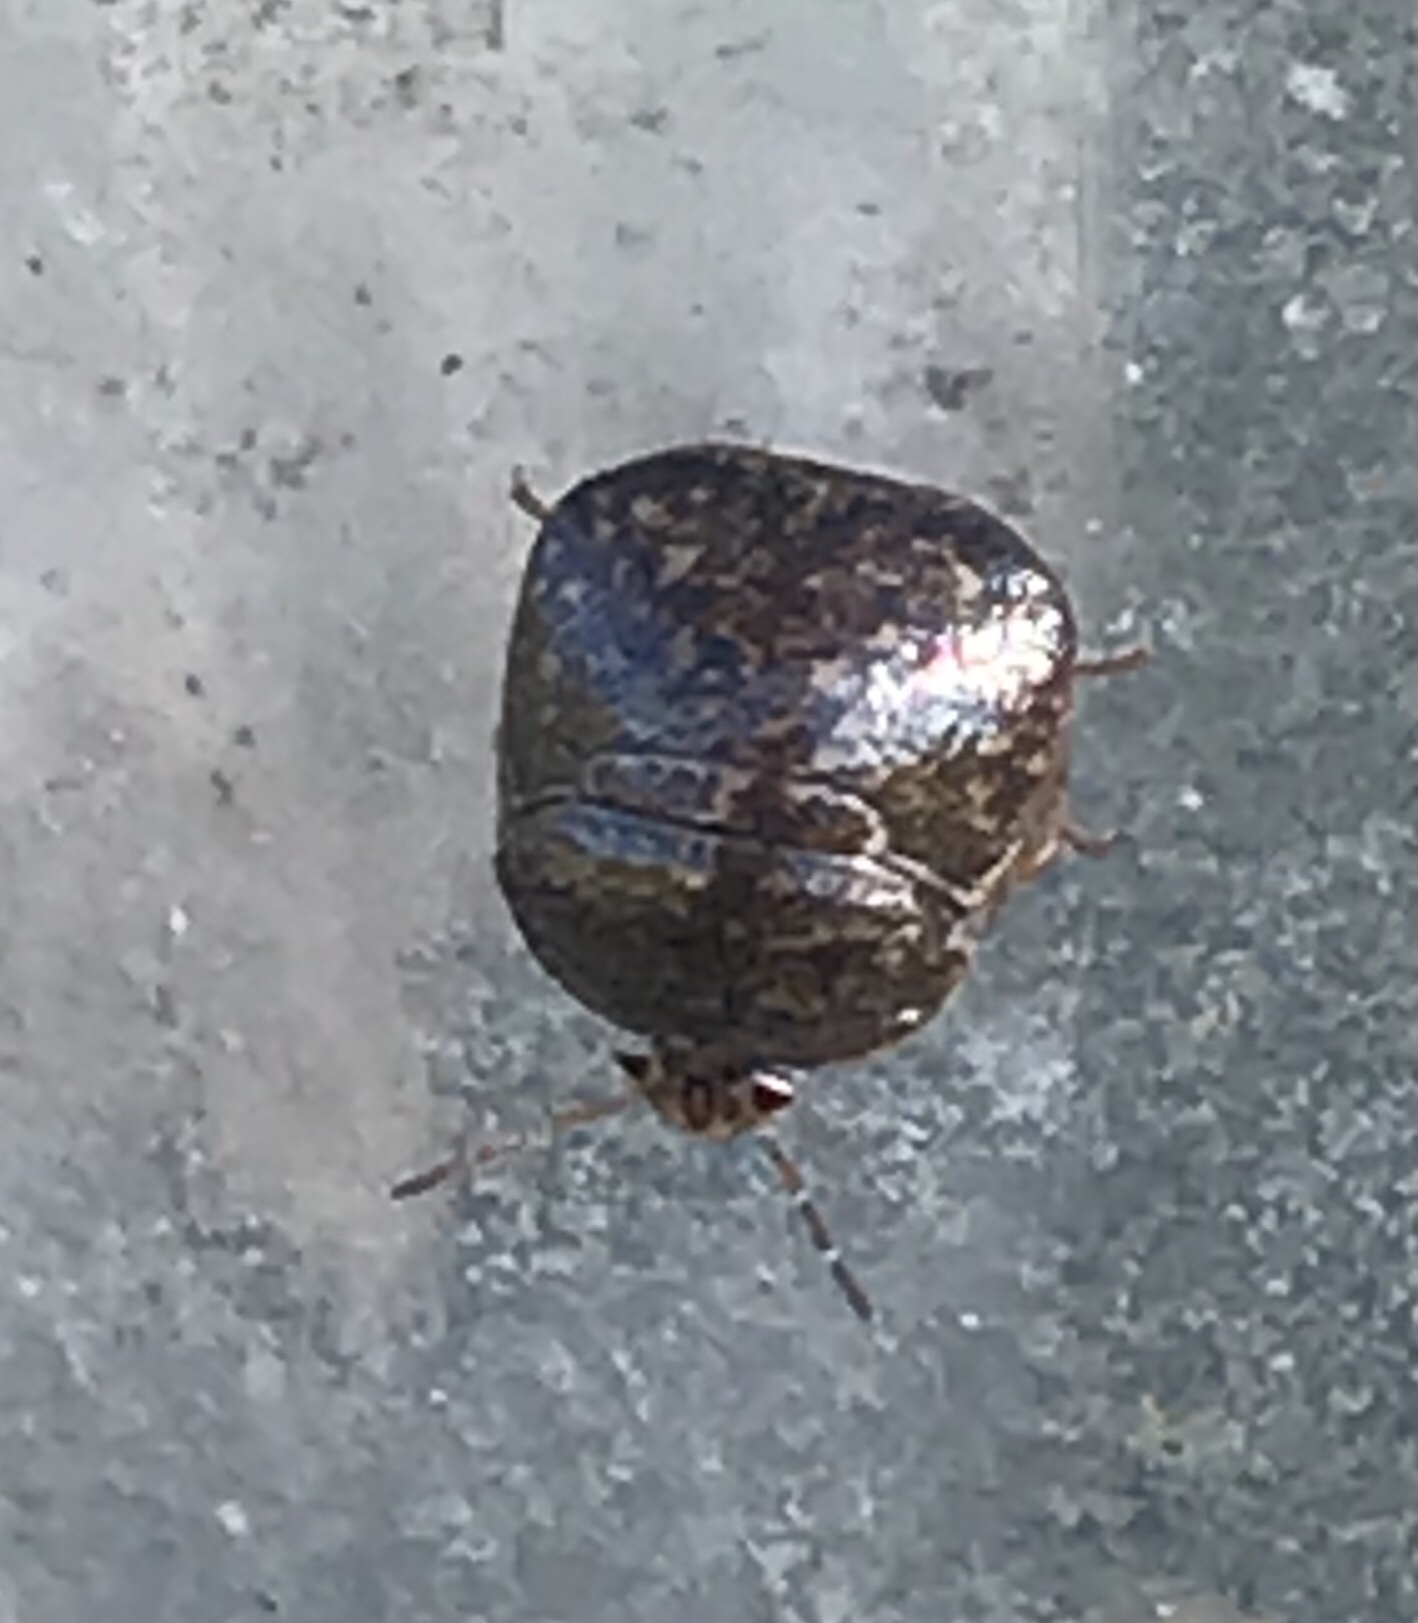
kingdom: Animalia
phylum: Arthropoda
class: Insecta
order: Hemiptera
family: Plataspidae
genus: Megacopta
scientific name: Megacopta cribraria
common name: Bean plataspid
